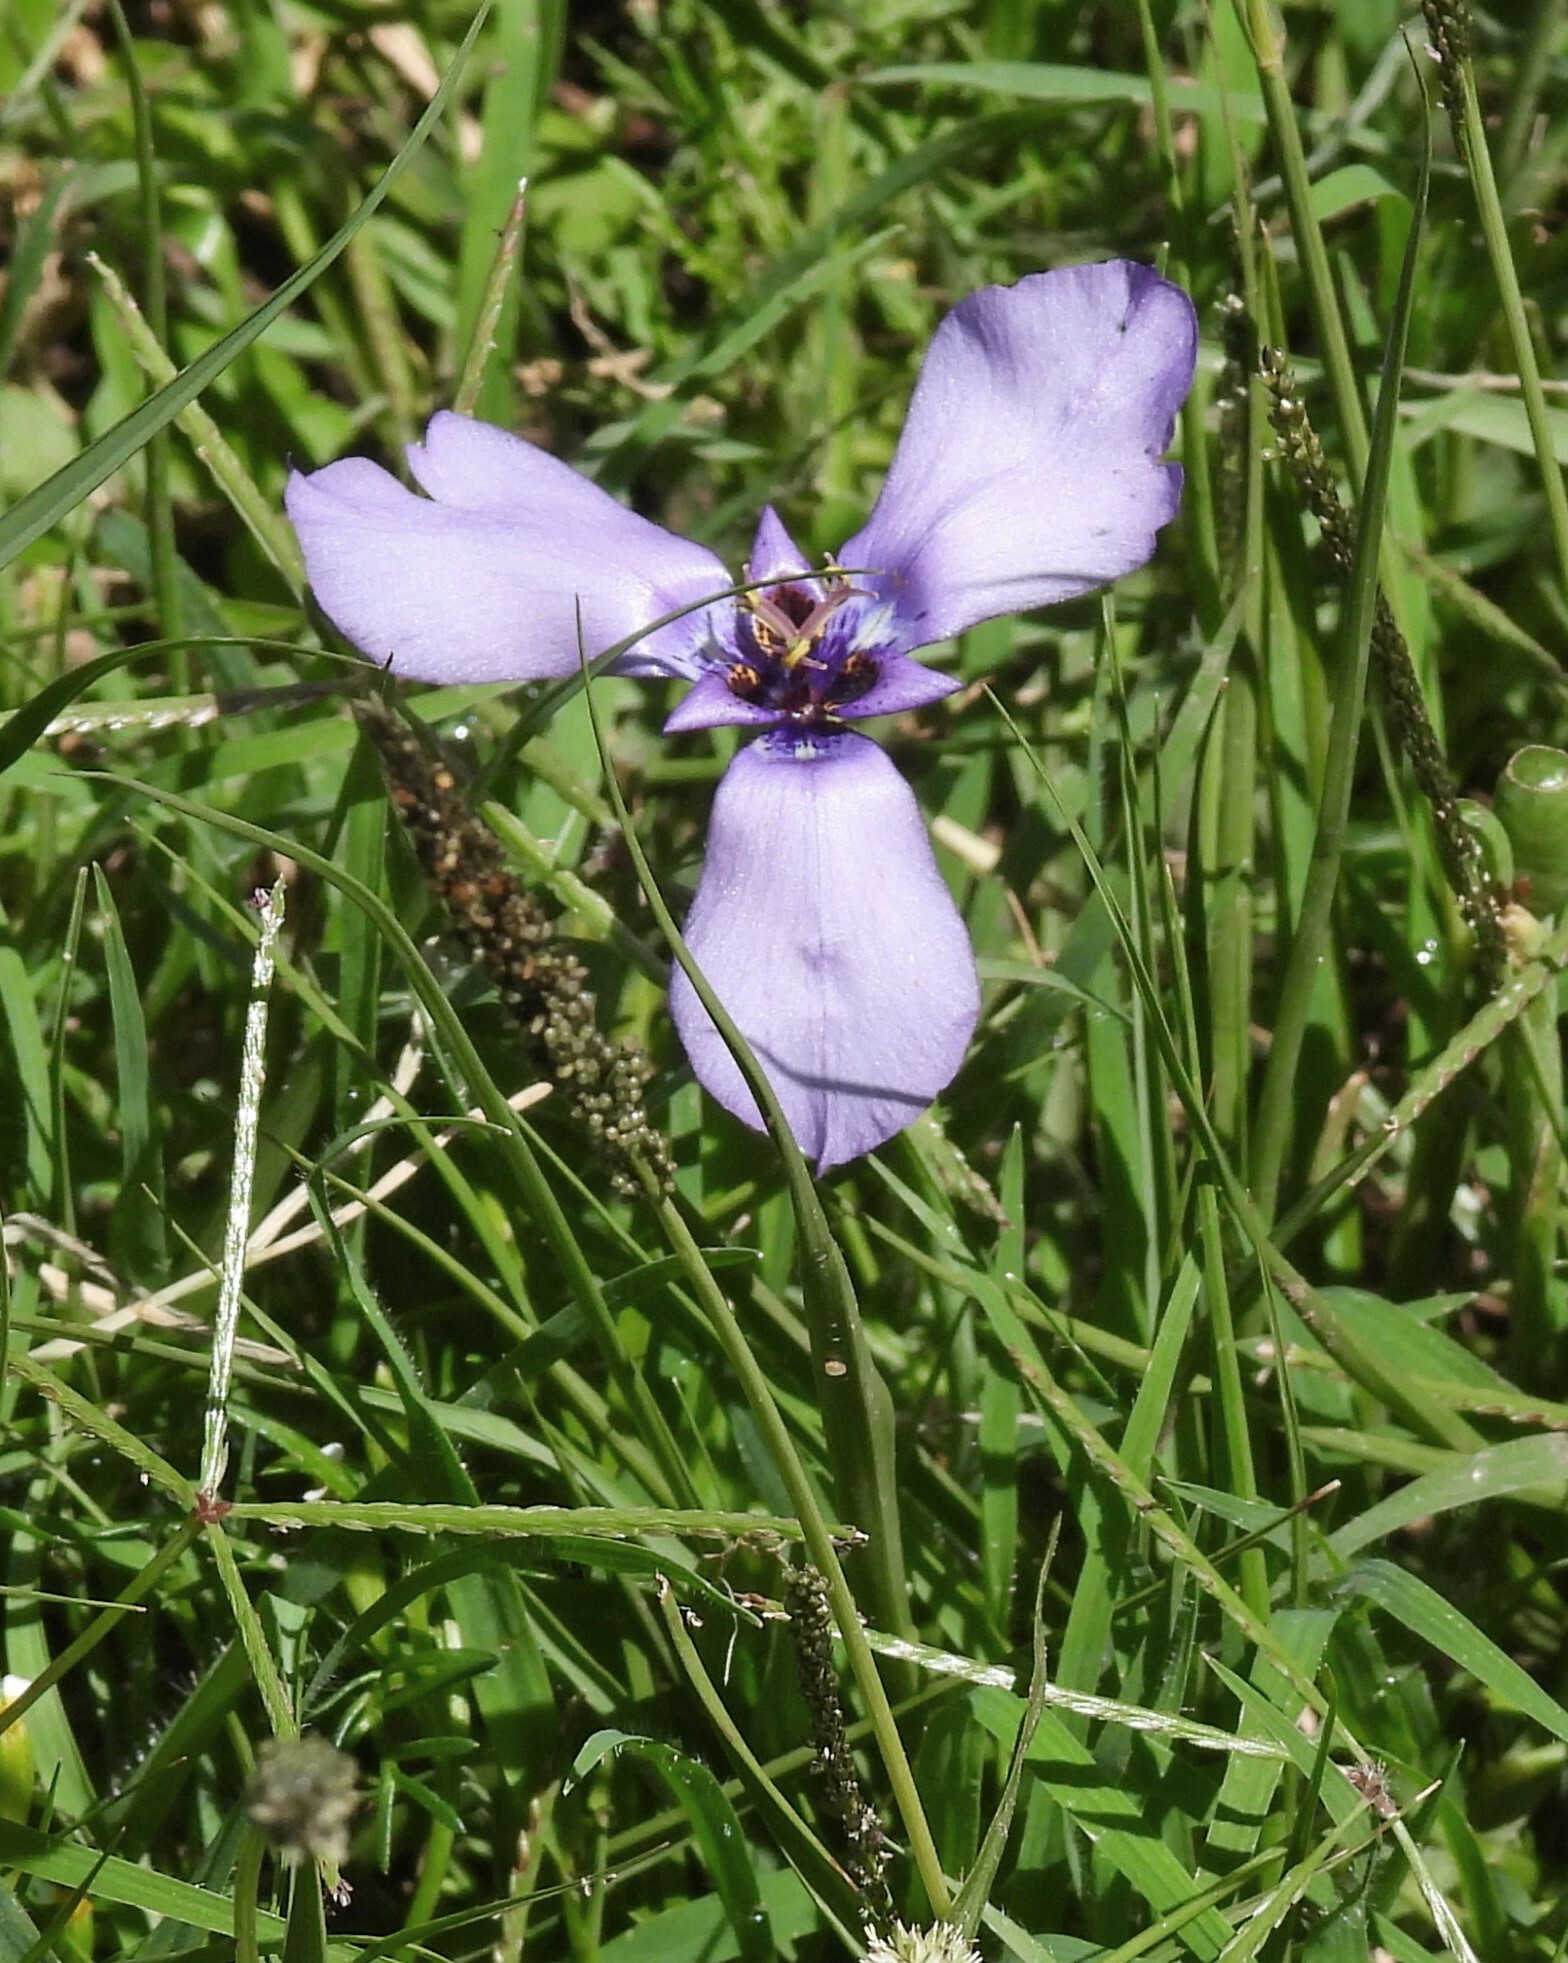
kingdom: Plantae
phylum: Tracheophyta
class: Liliopsida
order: Asparagales
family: Iridaceae
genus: Herbertia
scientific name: Herbertia tigridioides
